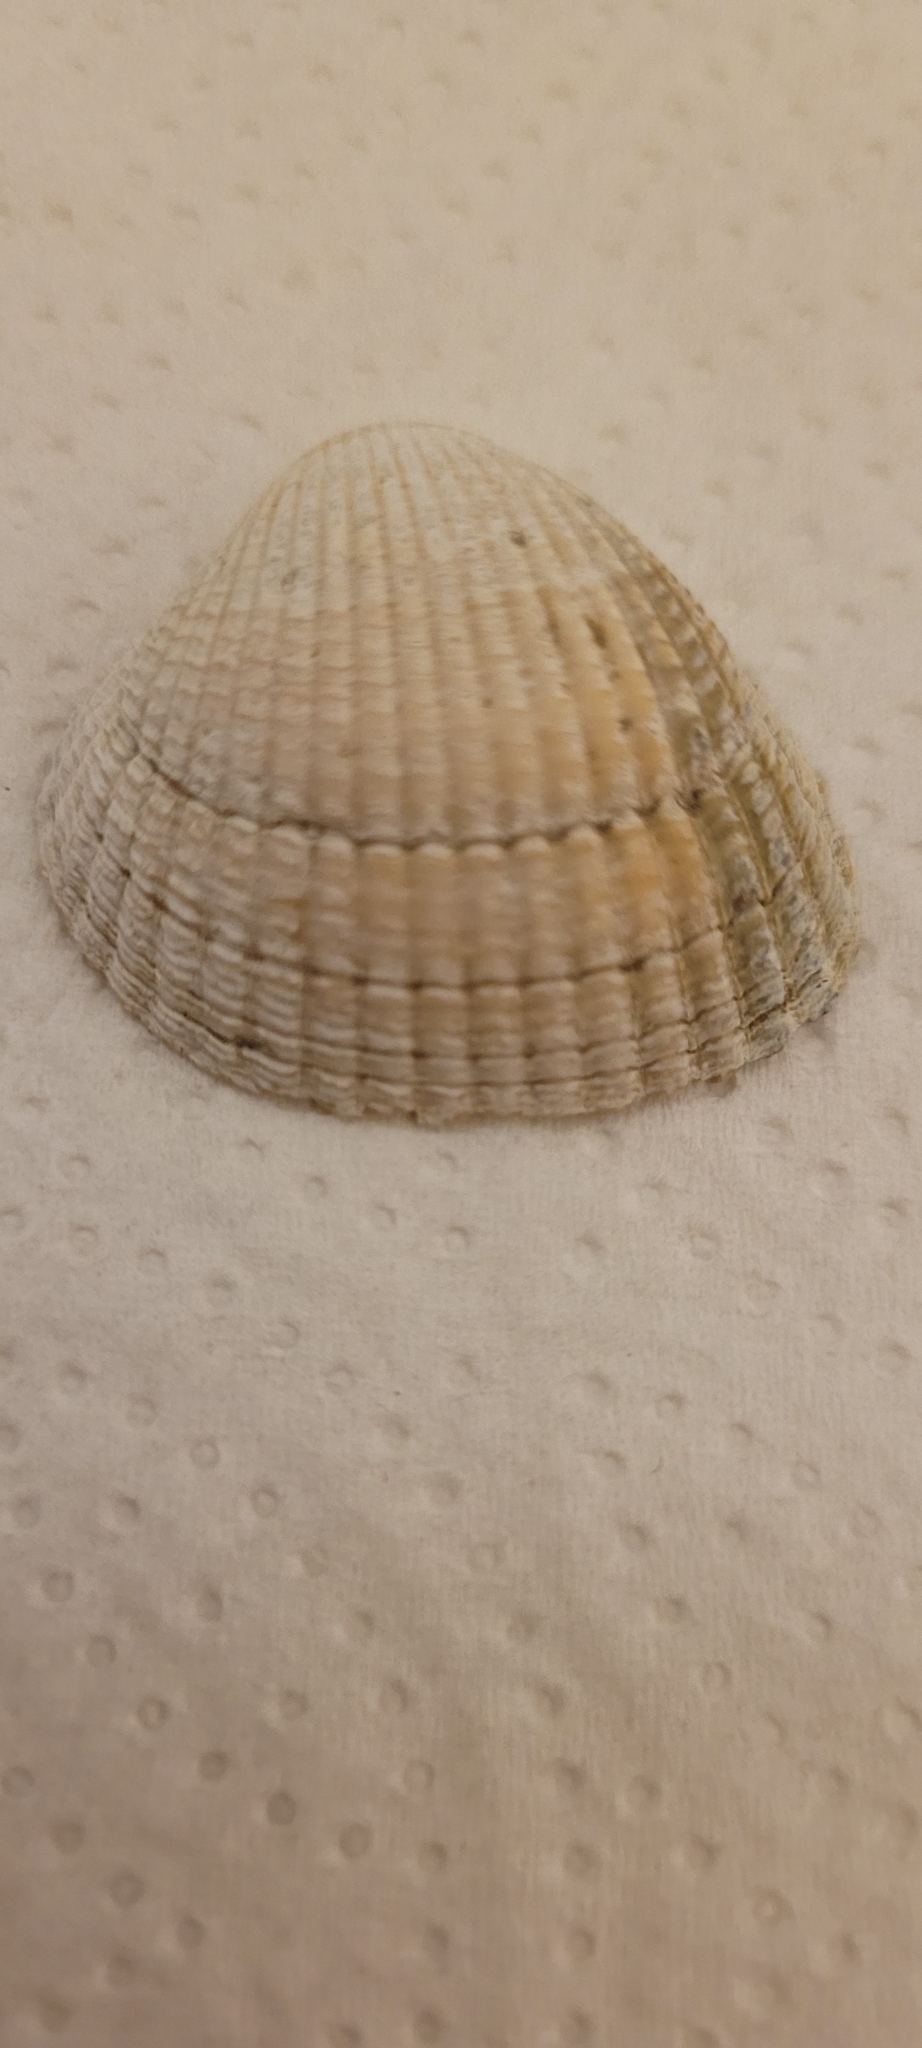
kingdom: Animalia
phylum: Mollusca
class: Bivalvia
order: Cardiida
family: Cardiidae
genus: Cerastoderma
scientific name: Cerastoderma edule
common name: Common cockle
